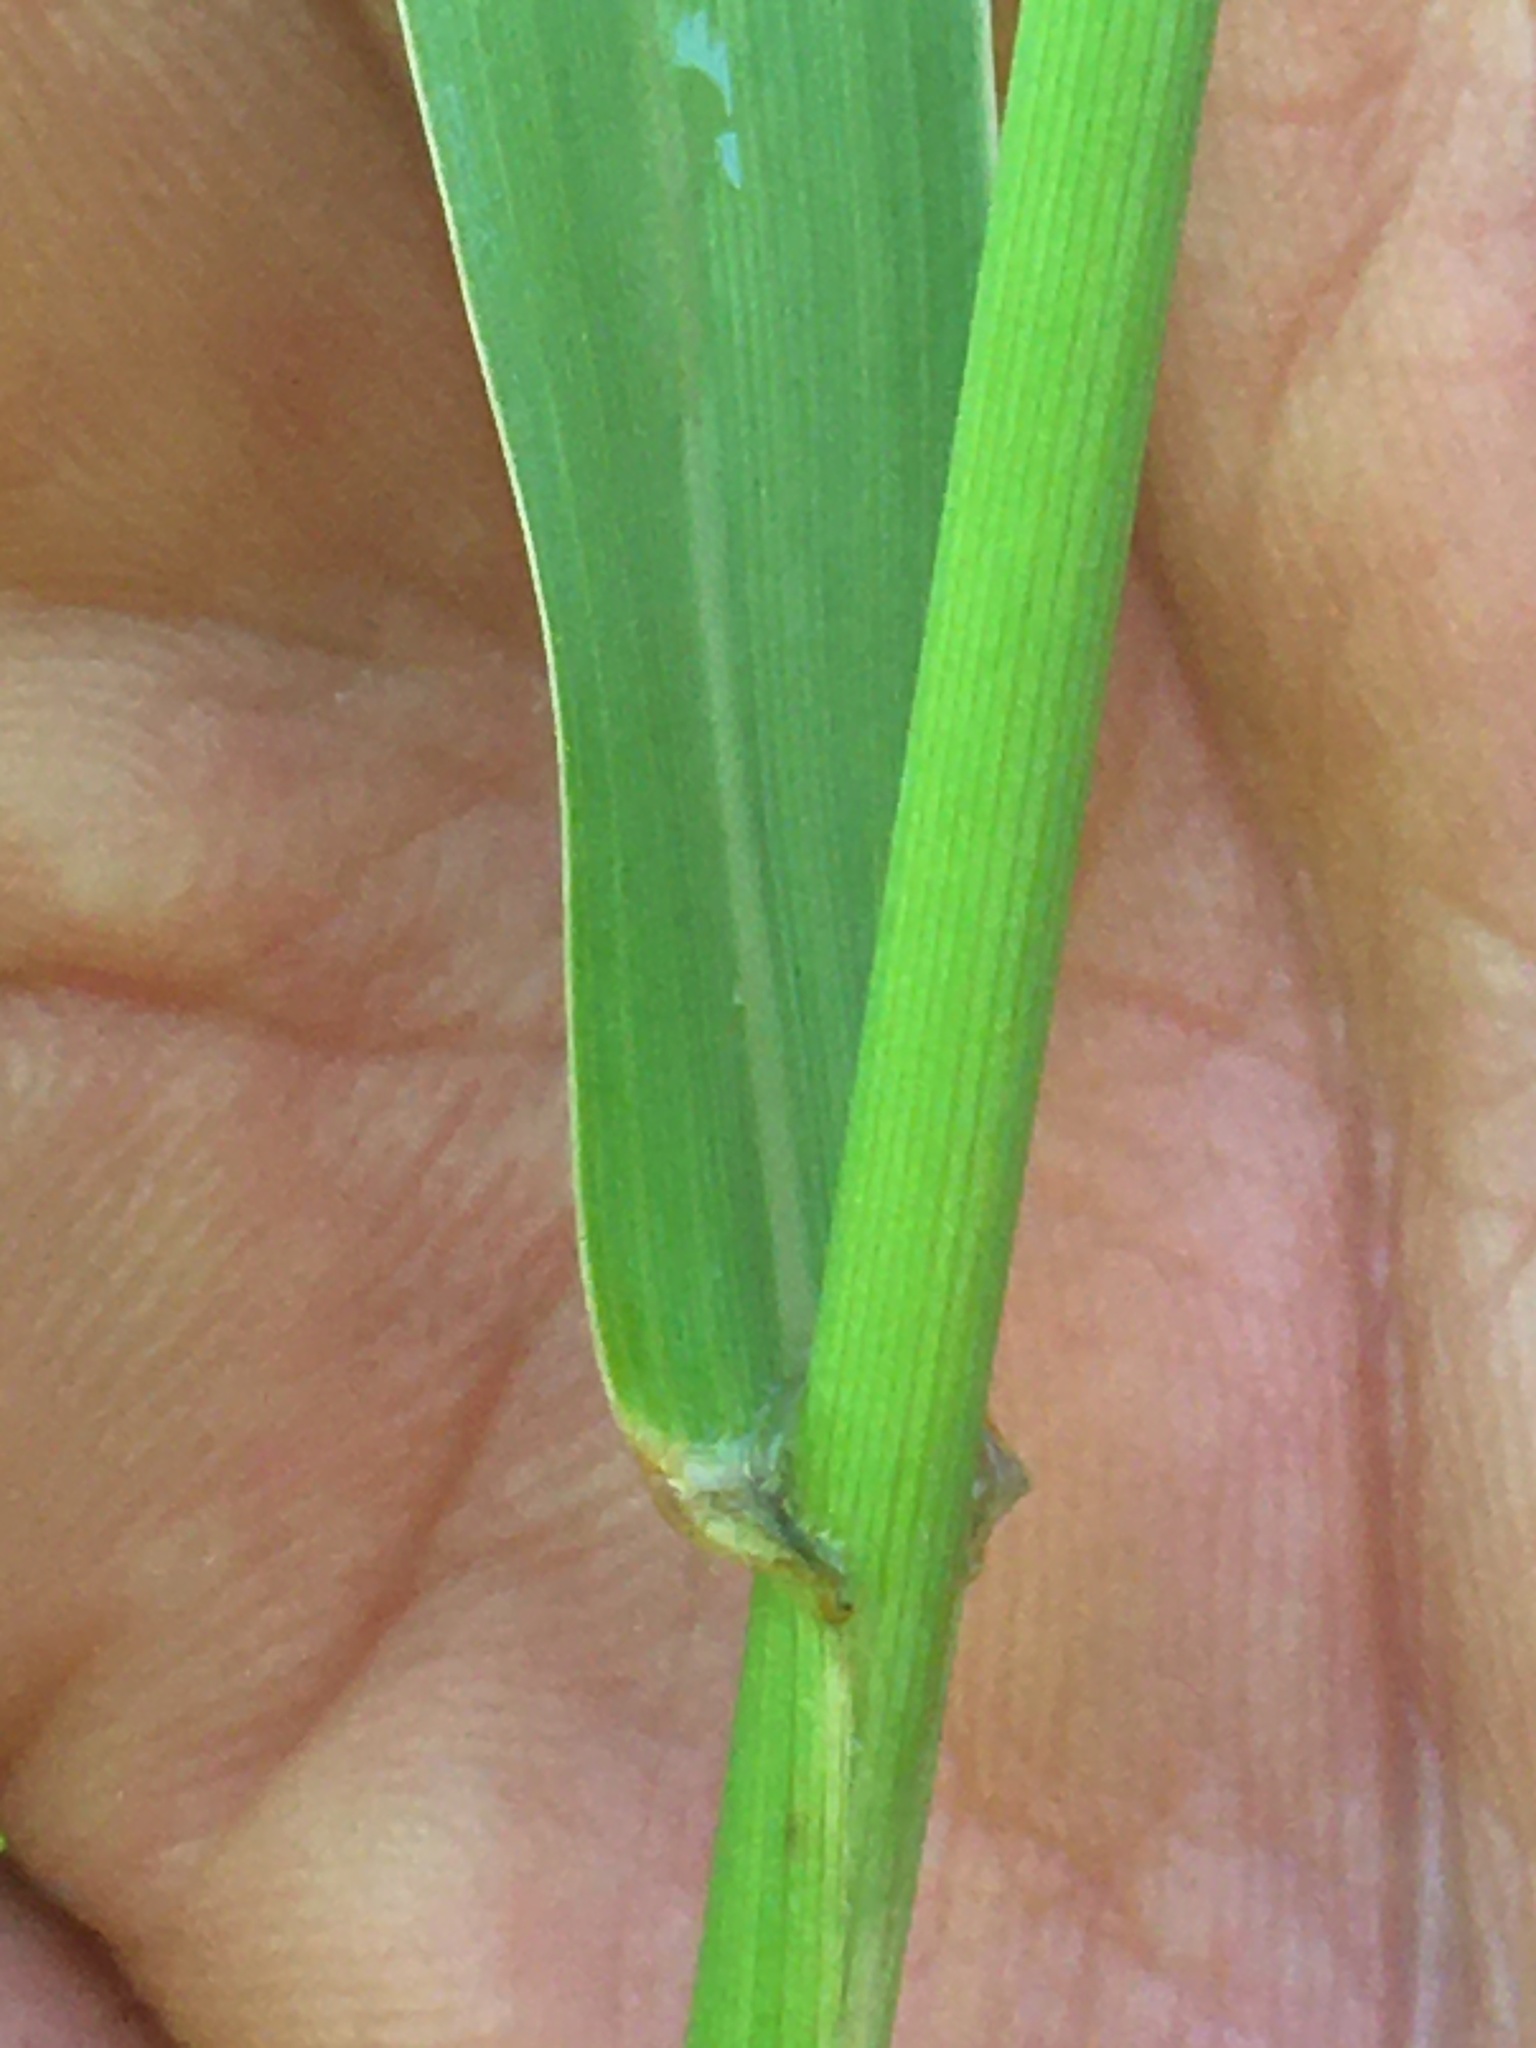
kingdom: Plantae
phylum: Tracheophyta
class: Liliopsida
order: Poales
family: Poaceae
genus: Phalaris
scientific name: Phalaris arundinacea
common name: Reed canary-grass
